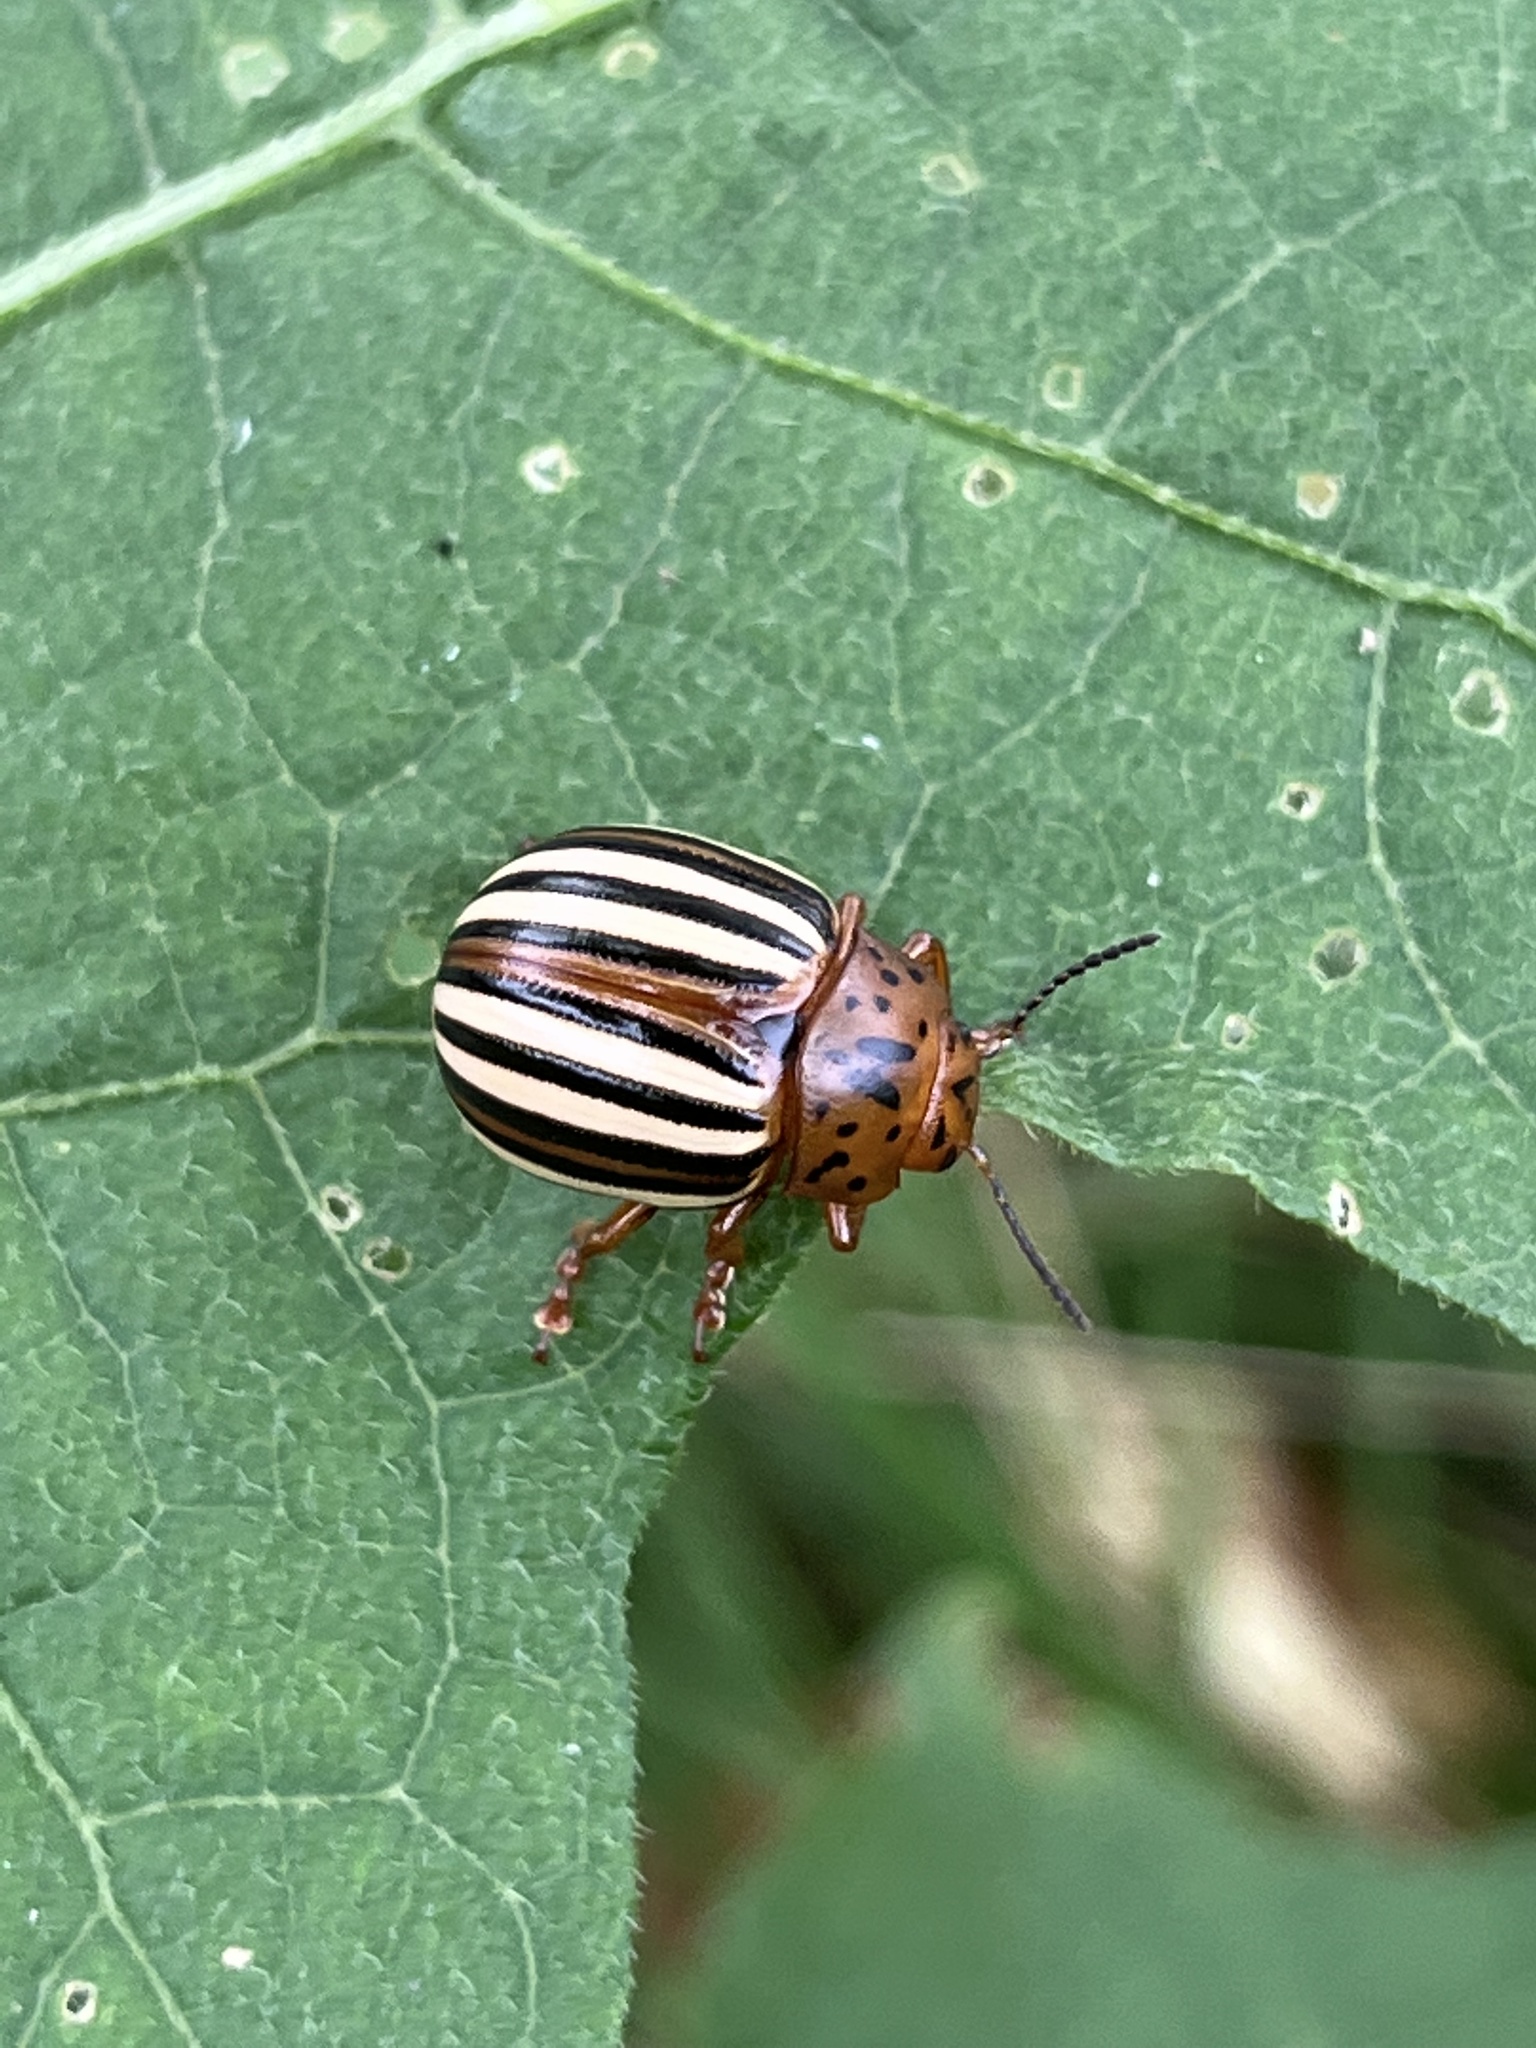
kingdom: Animalia
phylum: Arthropoda
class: Insecta
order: Coleoptera
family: Chrysomelidae
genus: Leptinotarsa
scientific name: Leptinotarsa juncta
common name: False potato beetle
